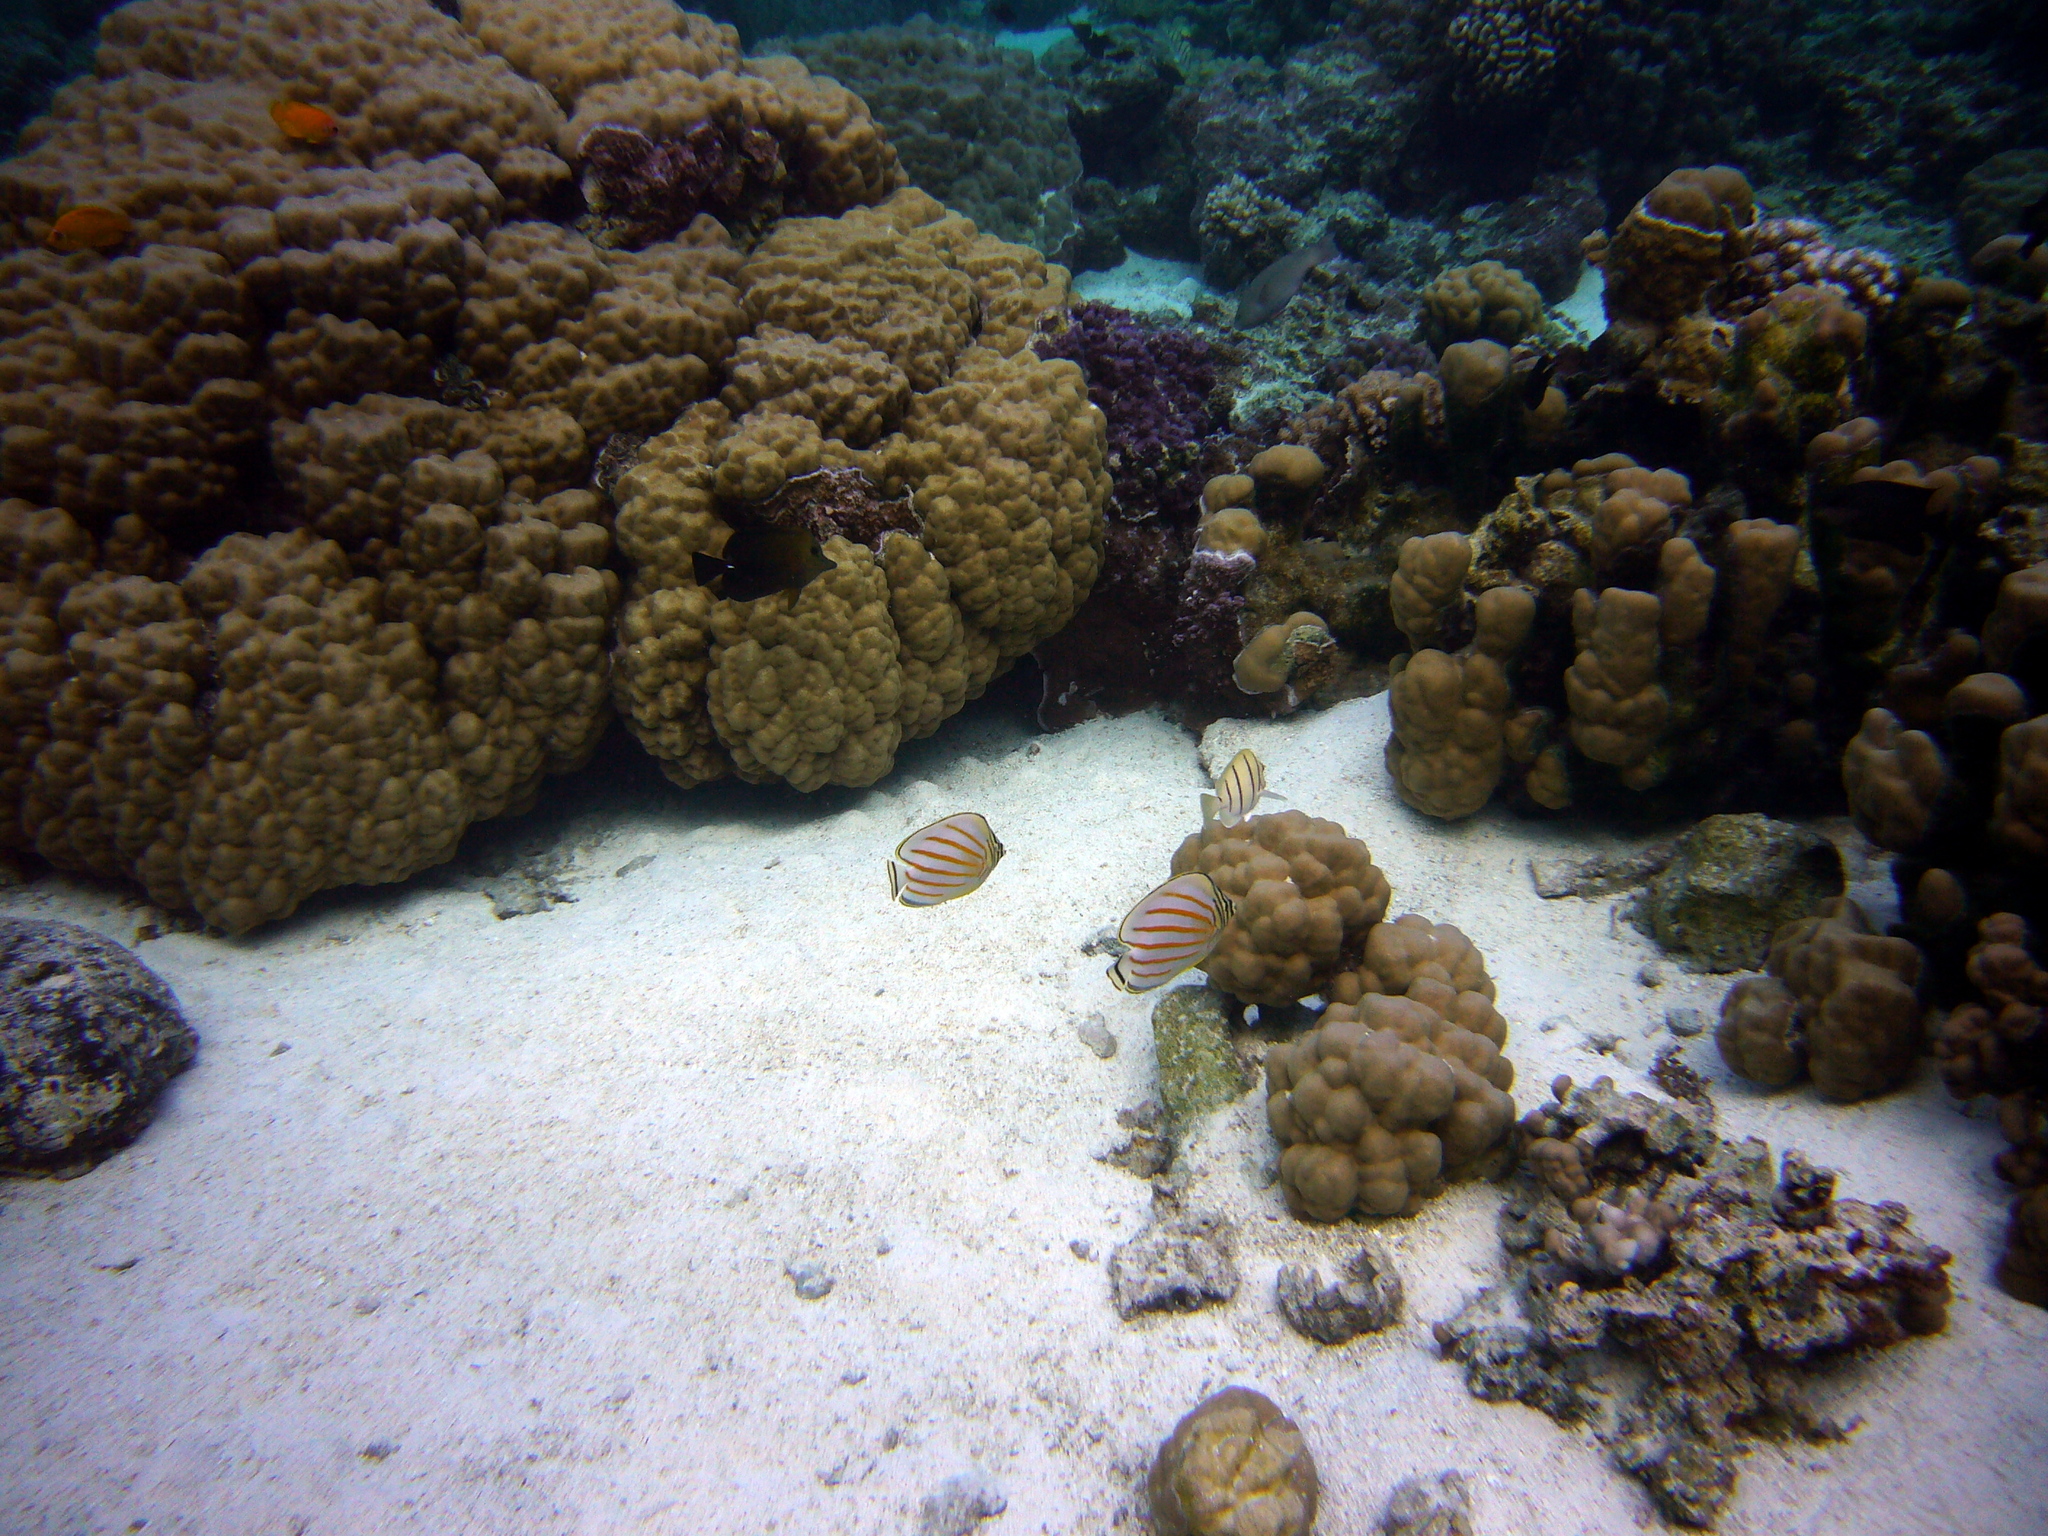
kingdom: Animalia
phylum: Chordata
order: Perciformes
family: Chaetodontidae
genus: Chaetodon
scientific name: Chaetodon ornatissimus
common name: Ornate butterflyfish
